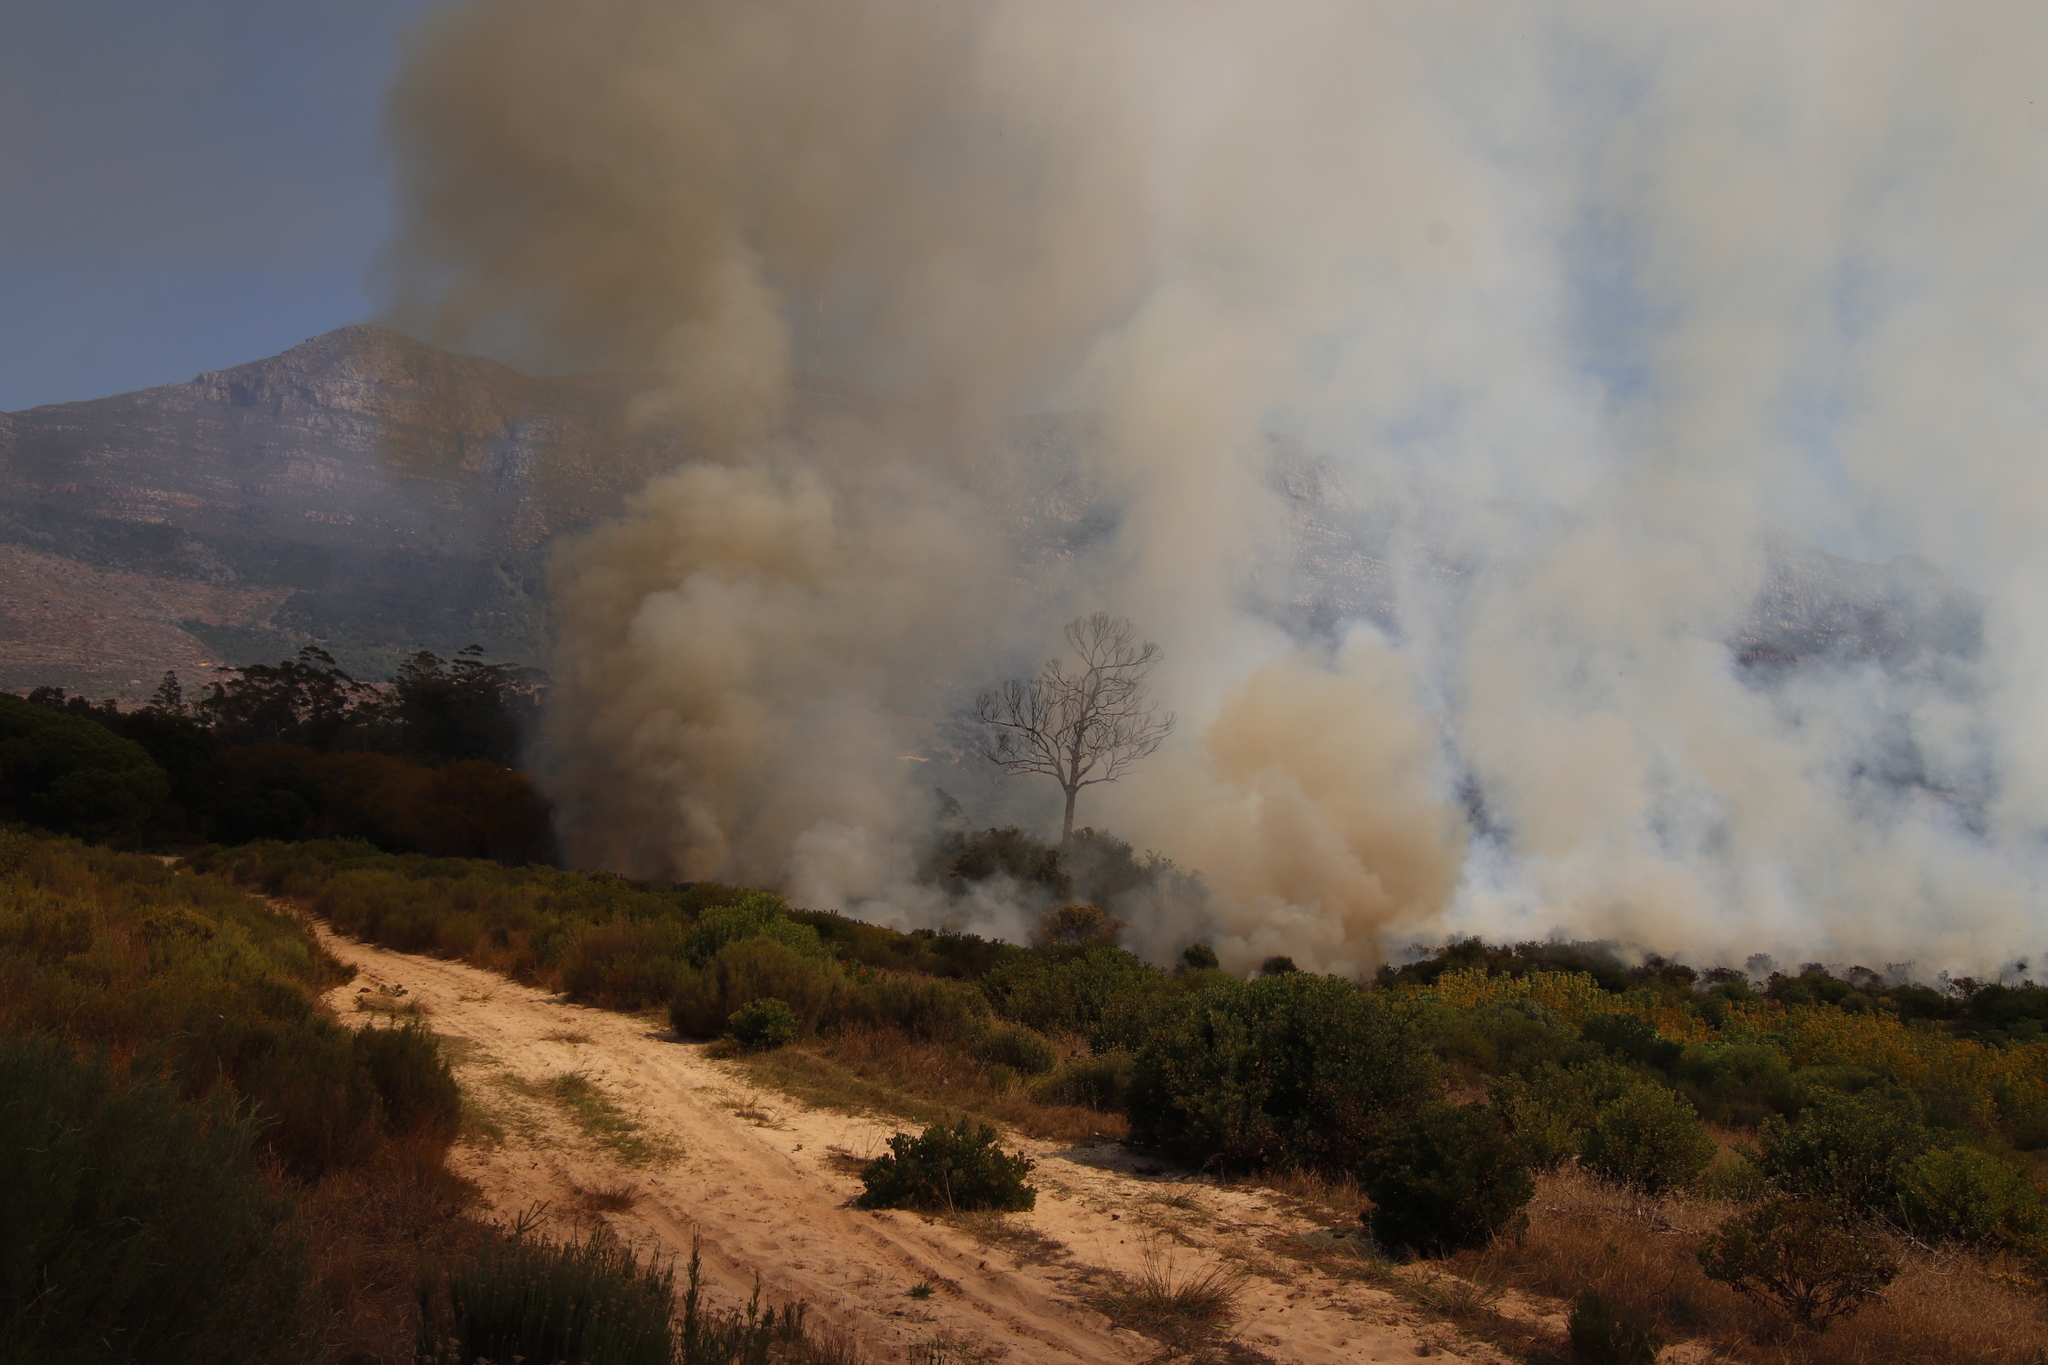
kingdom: Plantae
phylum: Tracheophyta
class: Magnoliopsida
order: Malvales
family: Thymelaeaceae
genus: Passerina
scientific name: Passerina corymbosa
